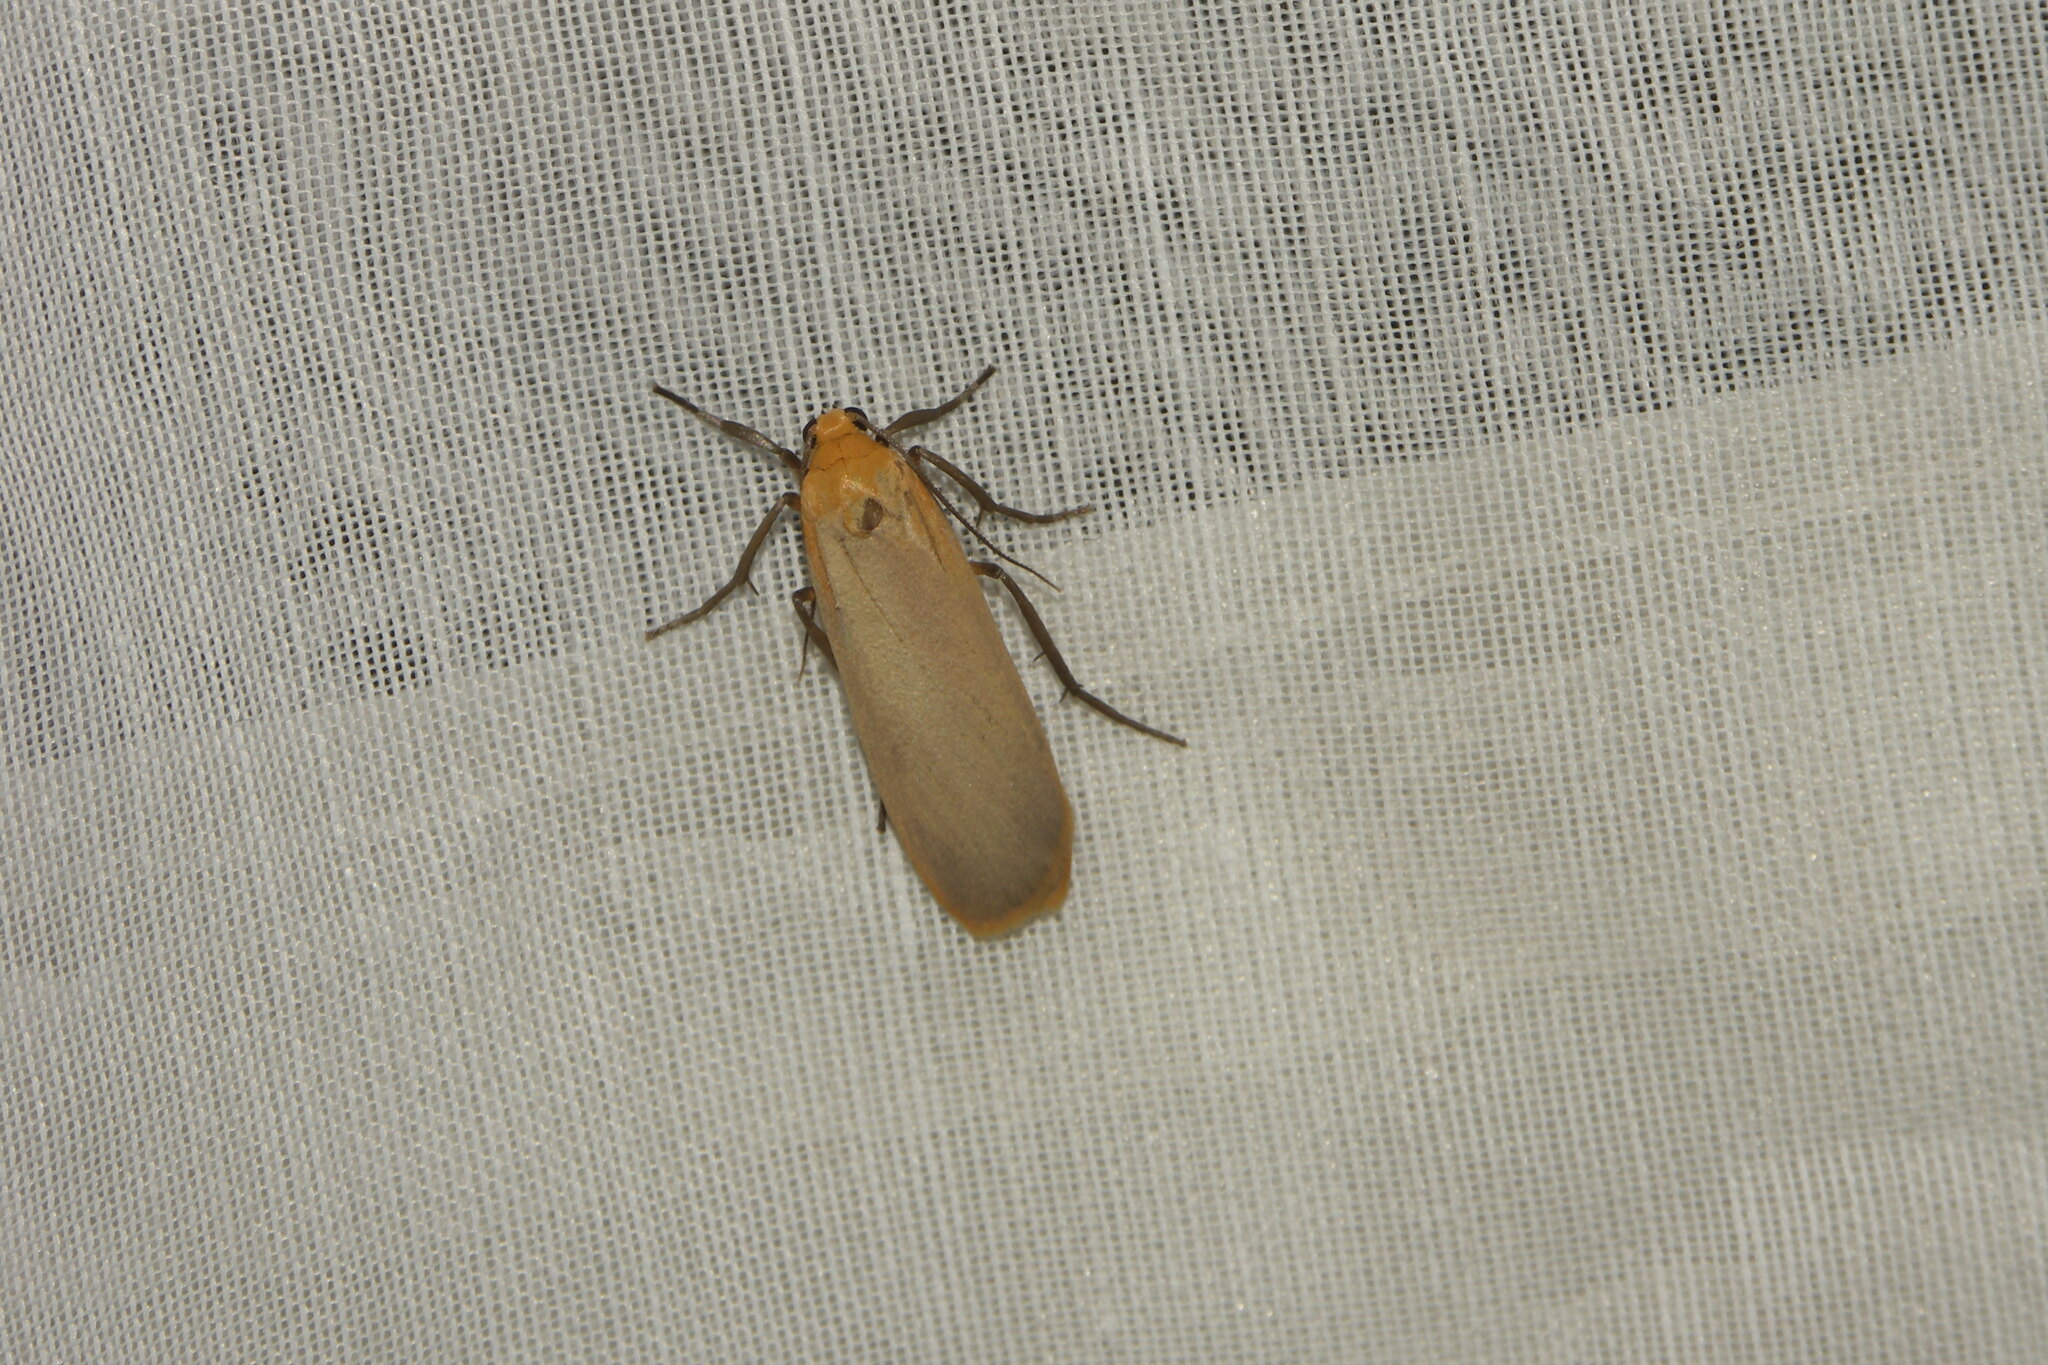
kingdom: Animalia
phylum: Arthropoda
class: Insecta
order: Lepidoptera
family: Erebidae
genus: Katha
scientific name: Katha depressa
